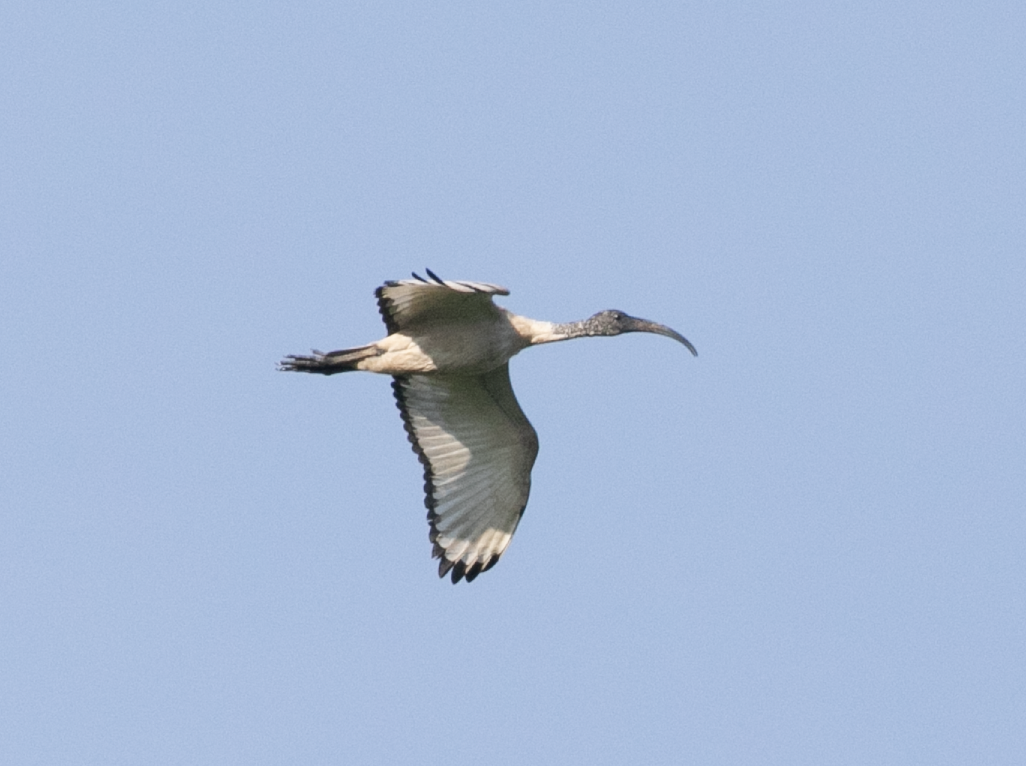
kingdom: Animalia
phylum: Chordata
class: Aves
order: Pelecaniformes
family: Threskiornithidae
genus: Threskiornis
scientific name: Threskiornis aethiopicus
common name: Sacred ibis
